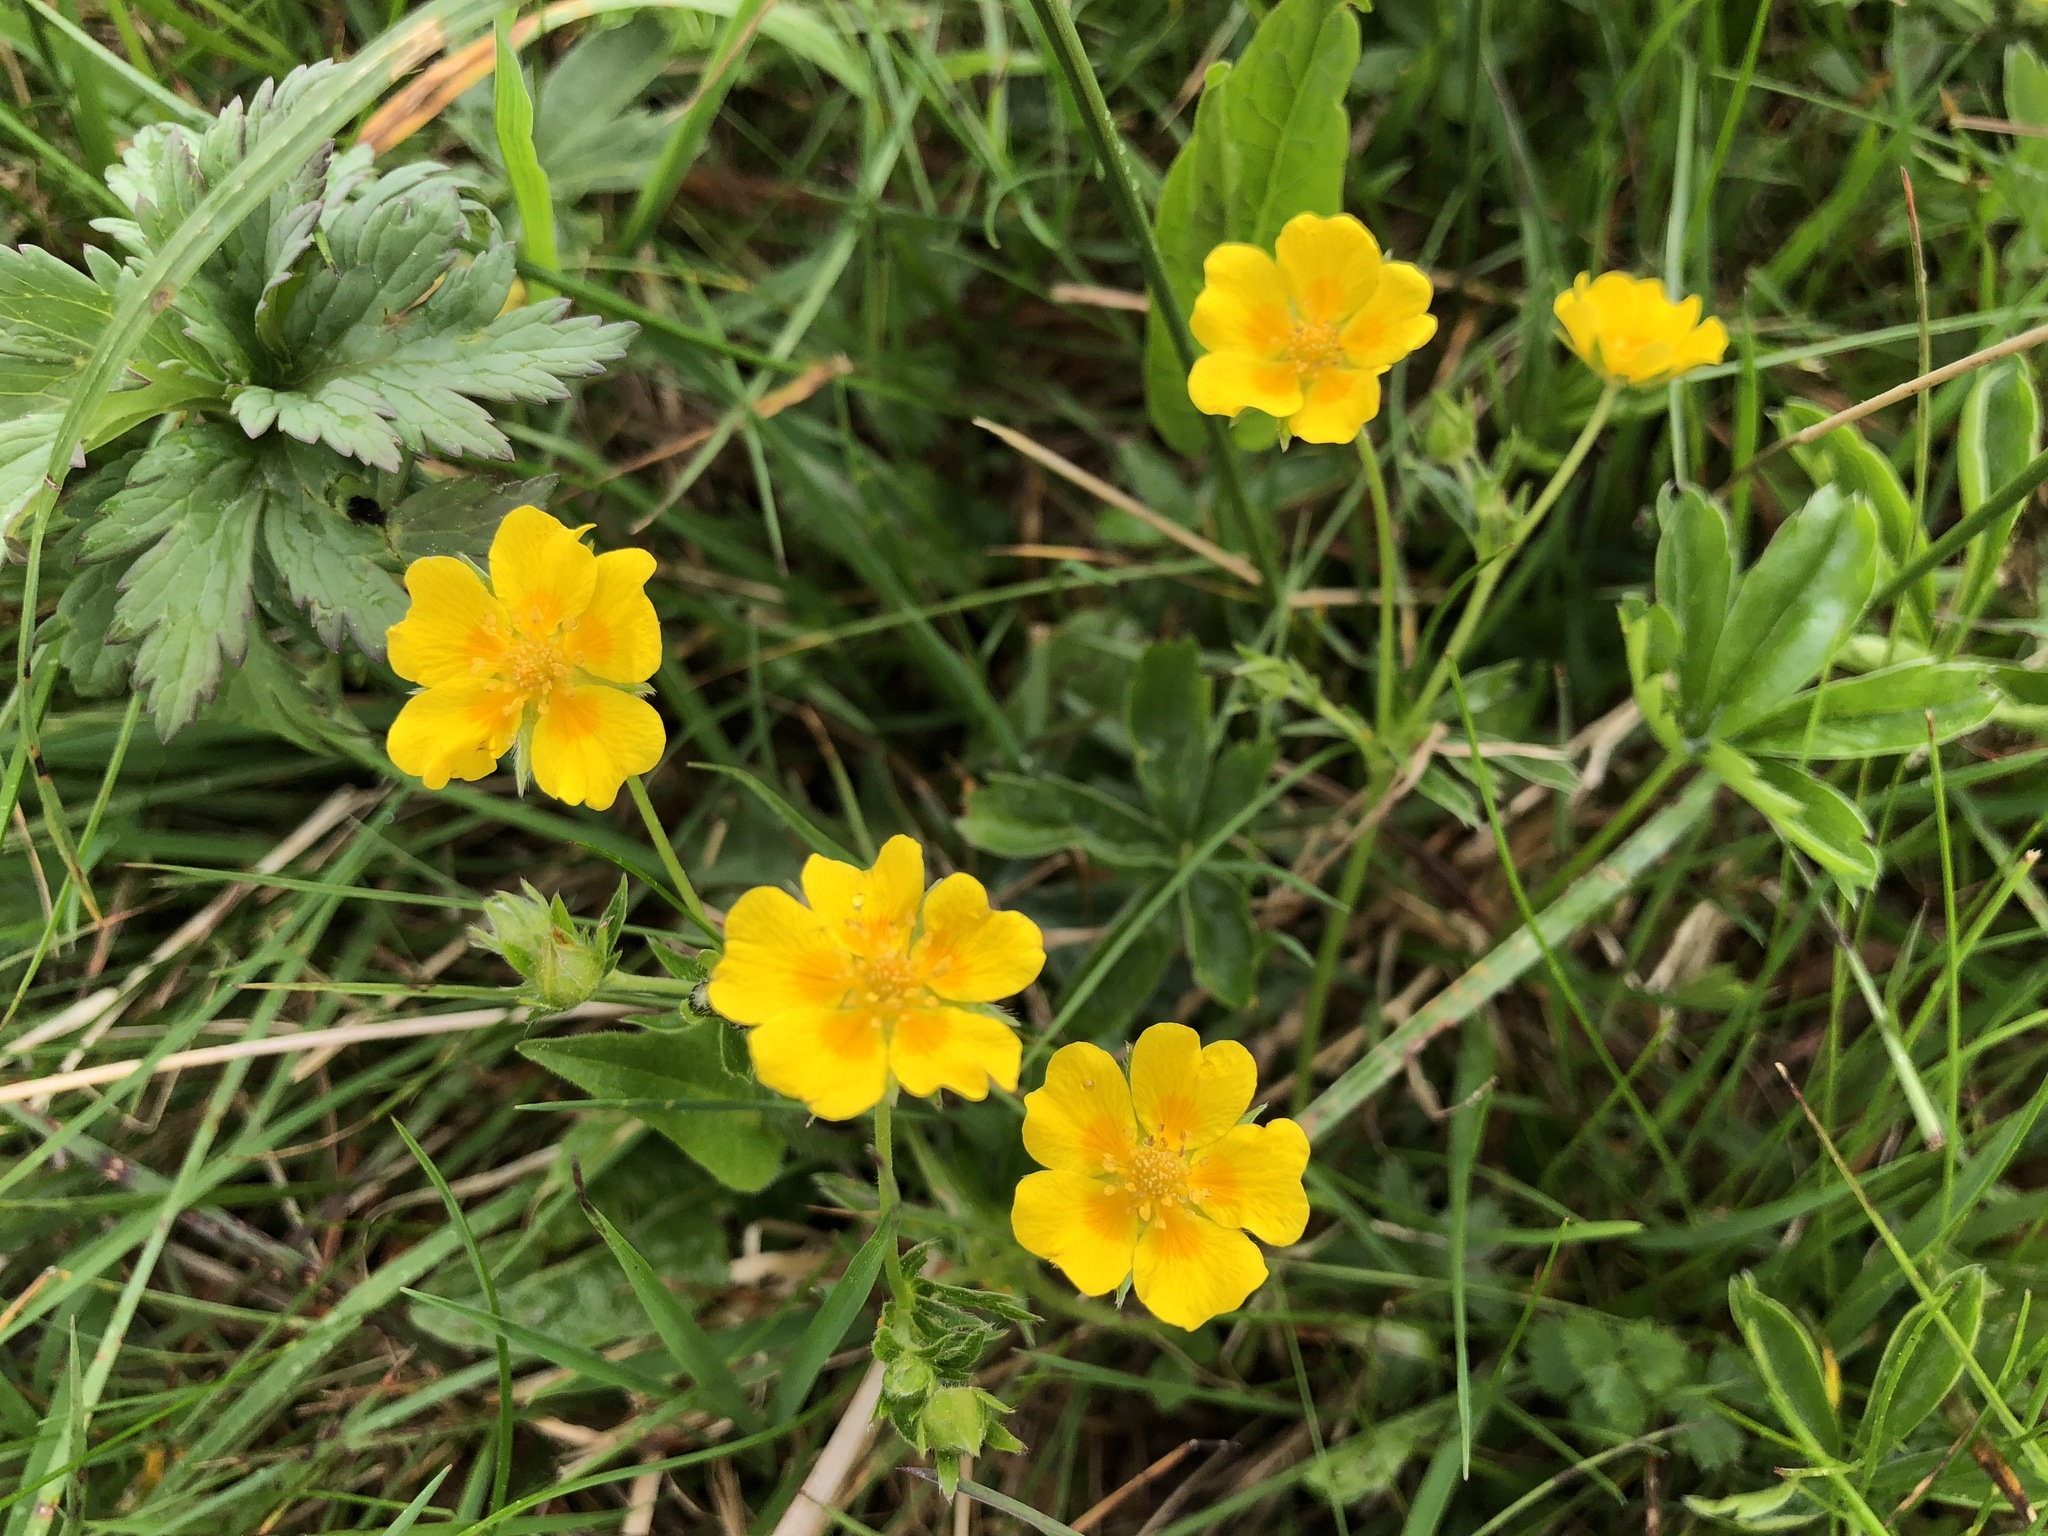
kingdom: Plantae
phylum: Tracheophyta
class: Magnoliopsida
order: Rosales
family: Rosaceae
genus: Potentilla
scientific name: Potentilla aurea
